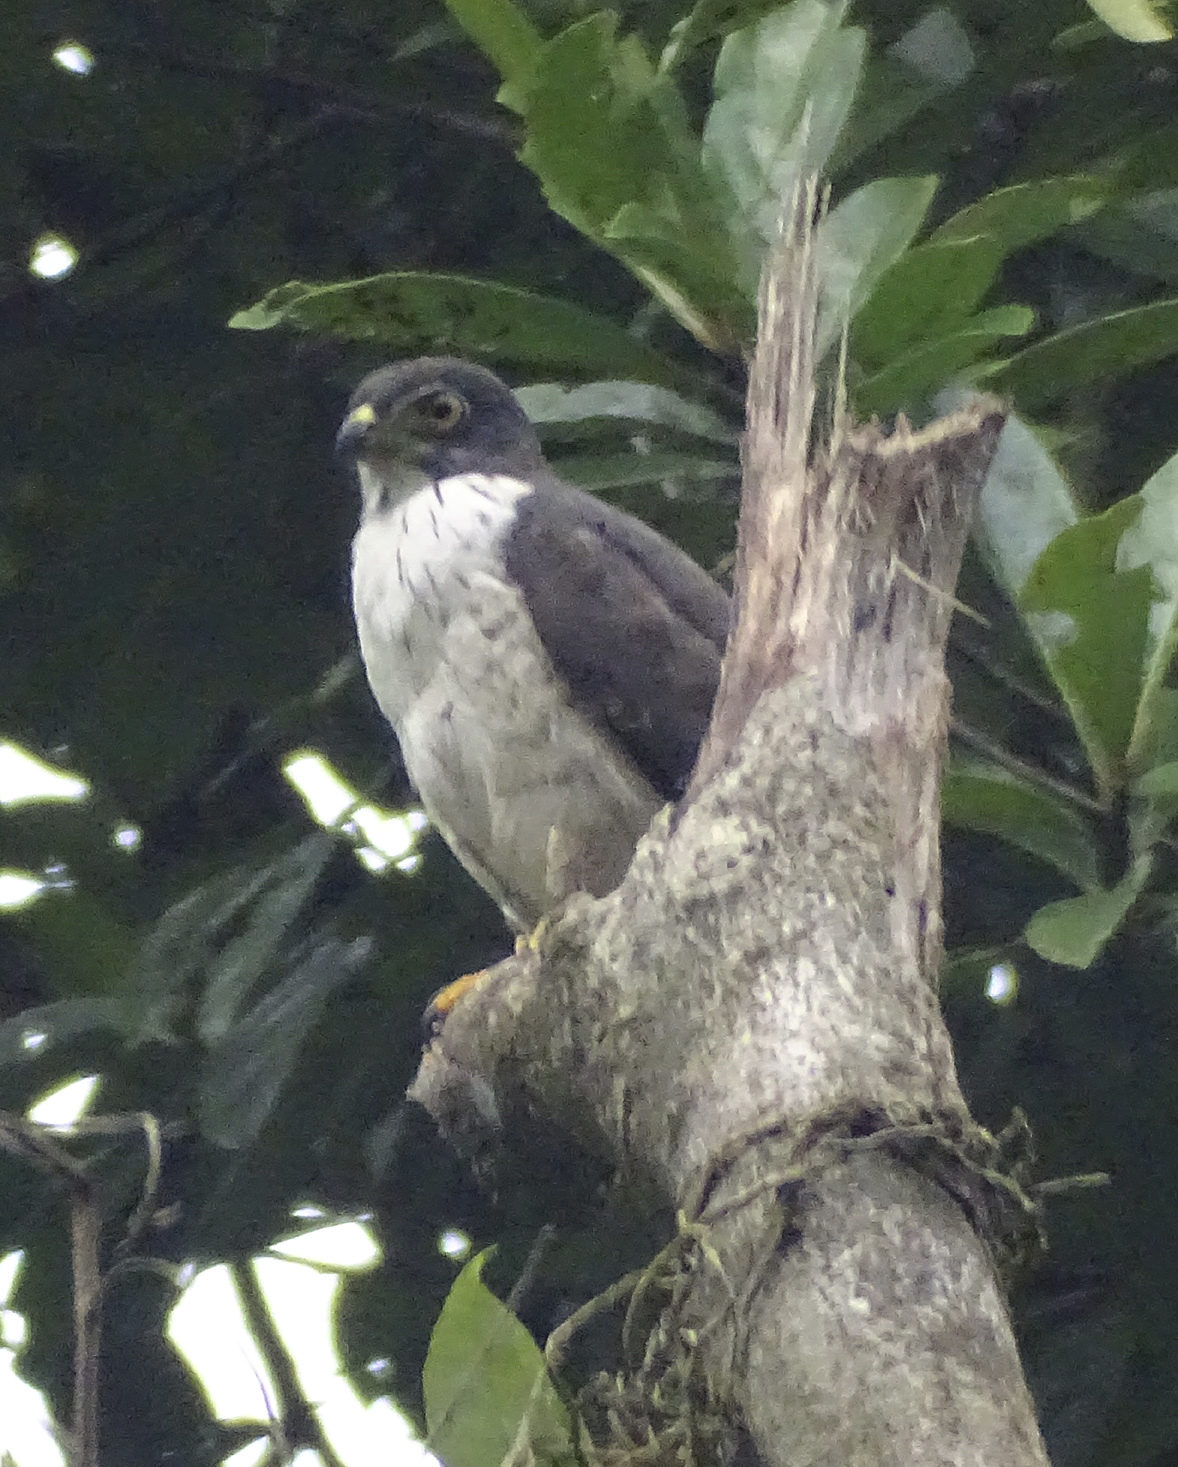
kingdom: Animalia
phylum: Chordata
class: Aves
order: Accipitriformes
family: Accipitridae
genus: Harpagus
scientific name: Harpagus bidentatus
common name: Double-toothed kite
